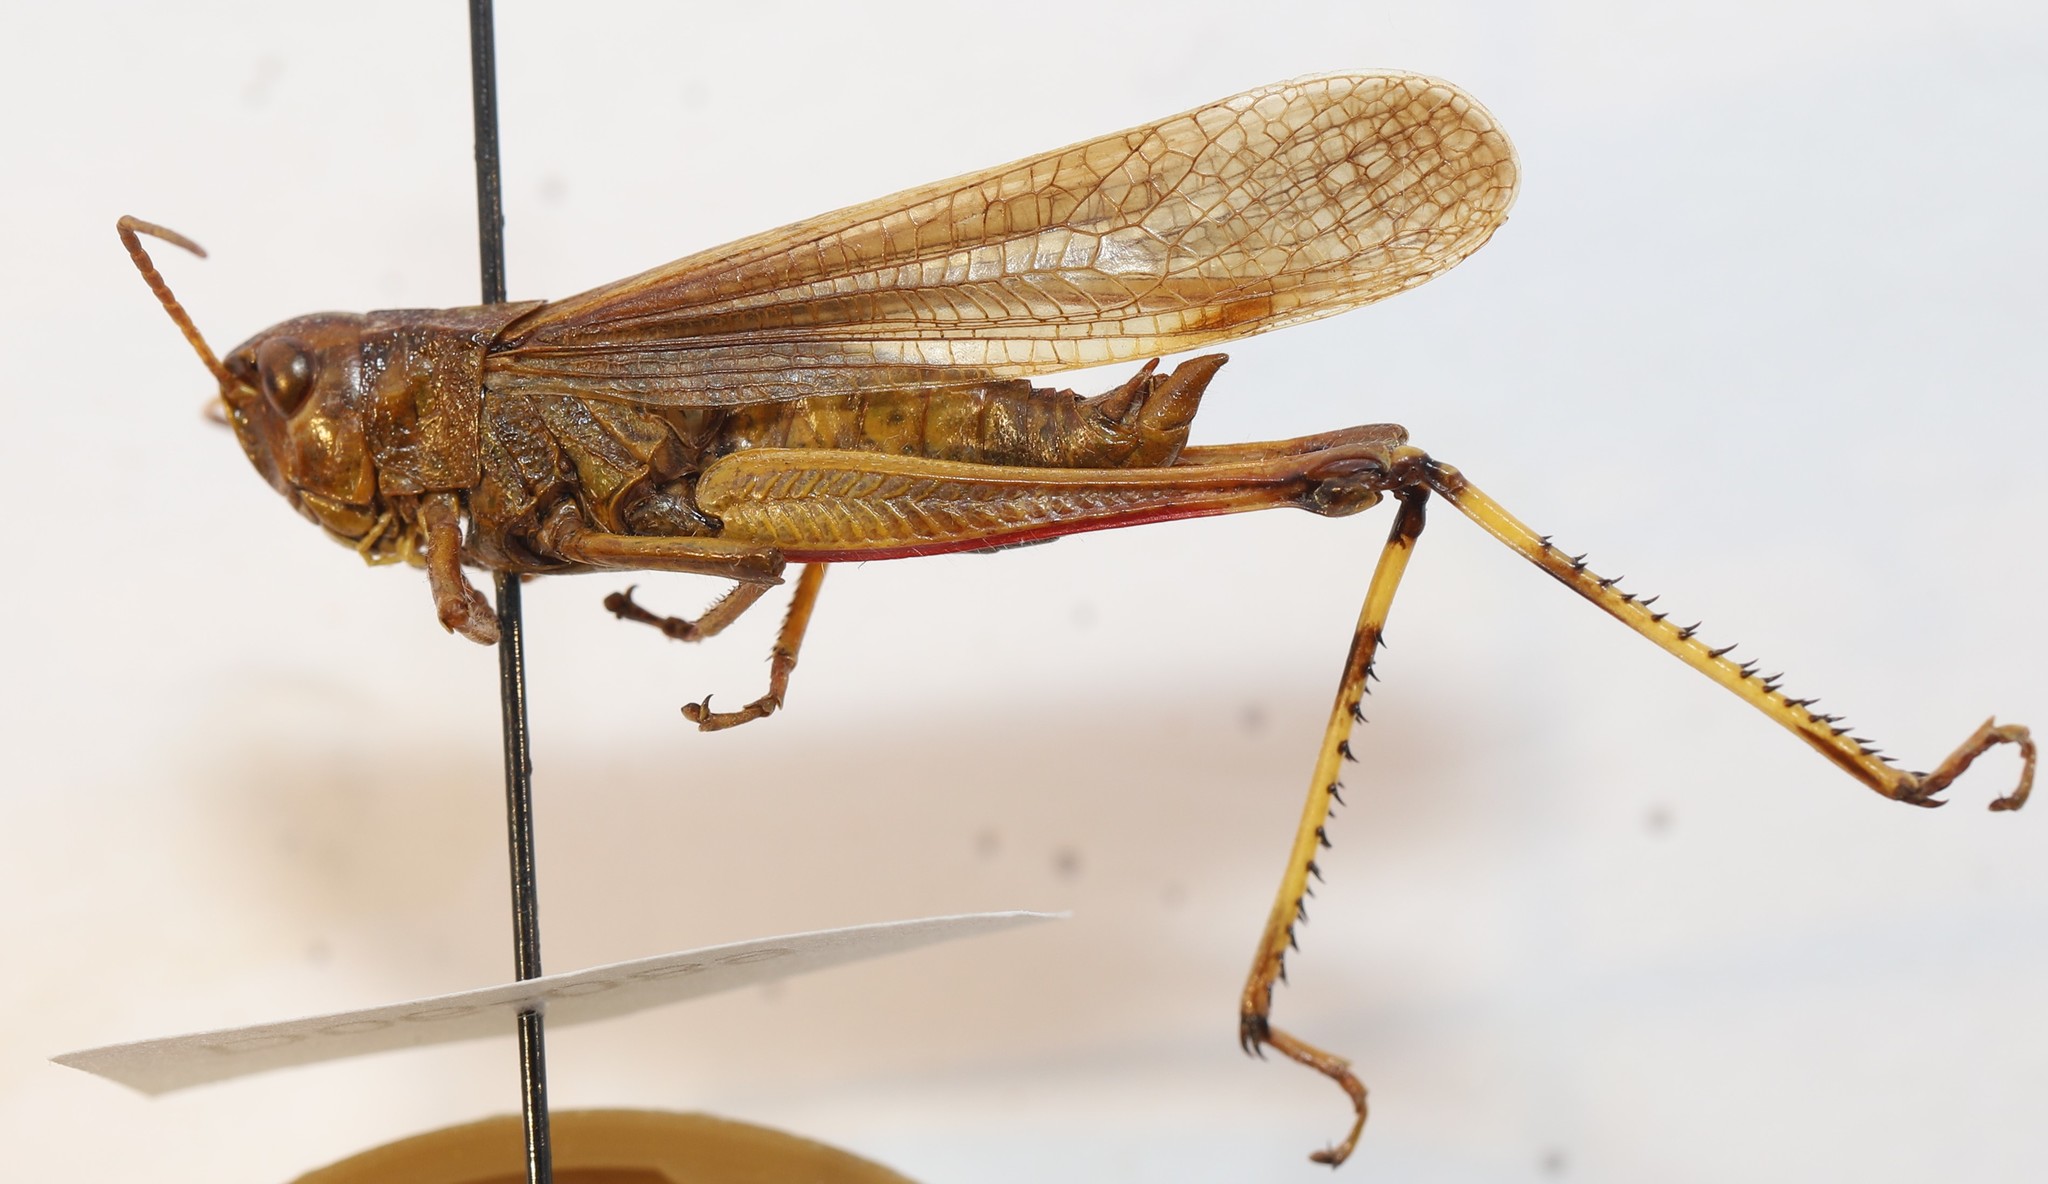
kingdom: Animalia
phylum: Arthropoda
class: Insecta
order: Orthoptera
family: Acrididae
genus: Stethophyma
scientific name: Stethophyma gracile
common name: Graceful sedge grasshopper
